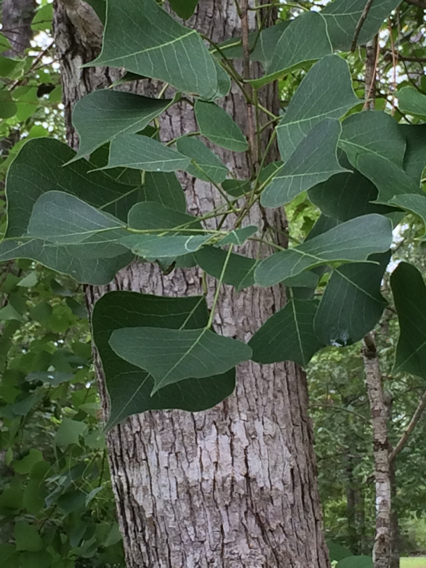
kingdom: Plantae
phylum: Tracheophyta
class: Magnoliopsida
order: Malpighiales
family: Euphorbiaceae
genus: Triadica
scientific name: Triadica sebifera
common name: Chinese tallow
